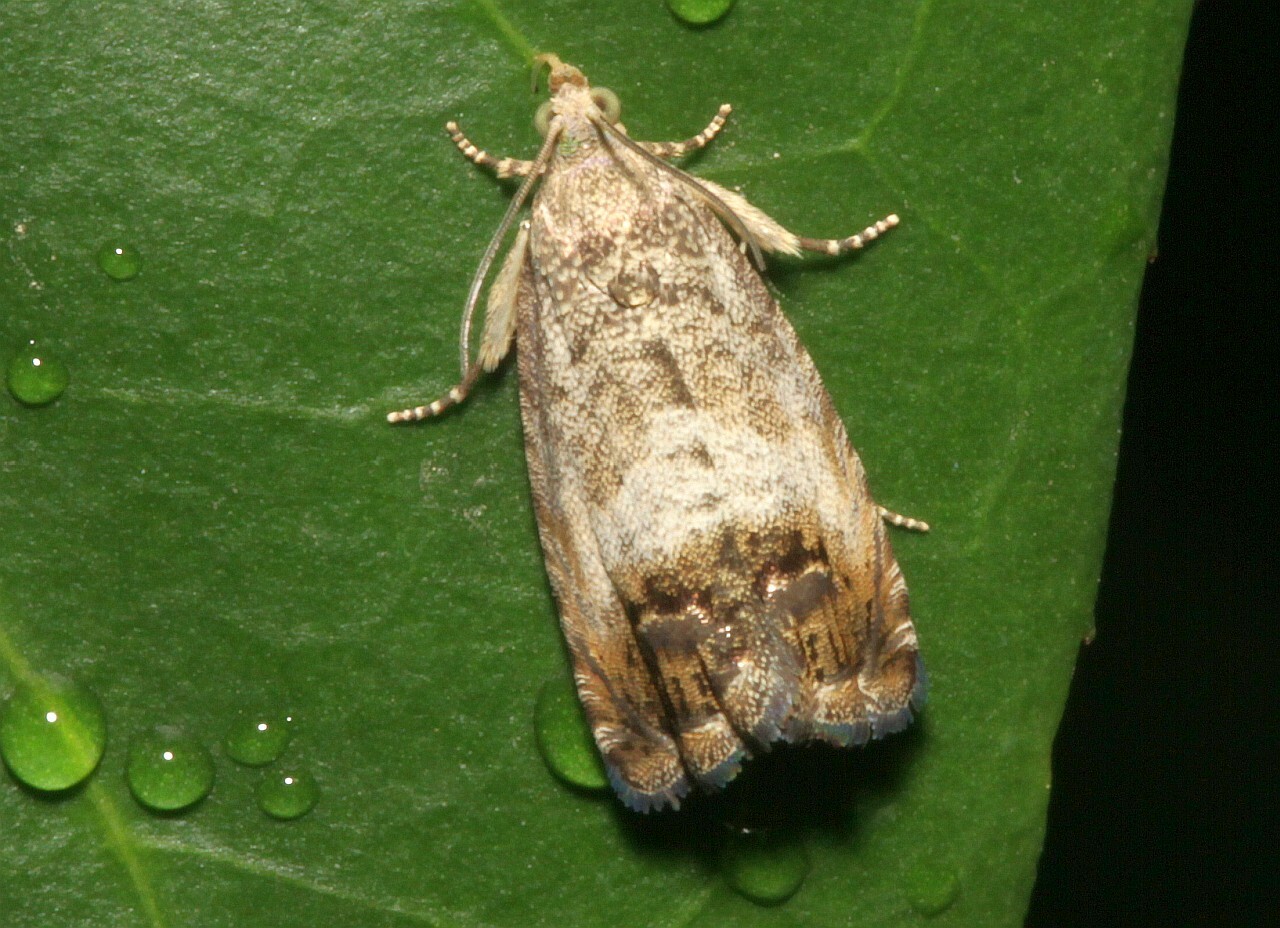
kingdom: Animalia
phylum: Arthropoda
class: Insecta
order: Lepidoptera
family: Tortricidae
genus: Cydia
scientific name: Cydia splendana
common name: De: kastanienwickler, eichenwickler es: oruga de la castaña fr: carpocapse des châtaignes it: cidia o tortrice tardiva delle castagne pt: bichado das castanhas gb: acorn moth, chestnut fruit tortrix
